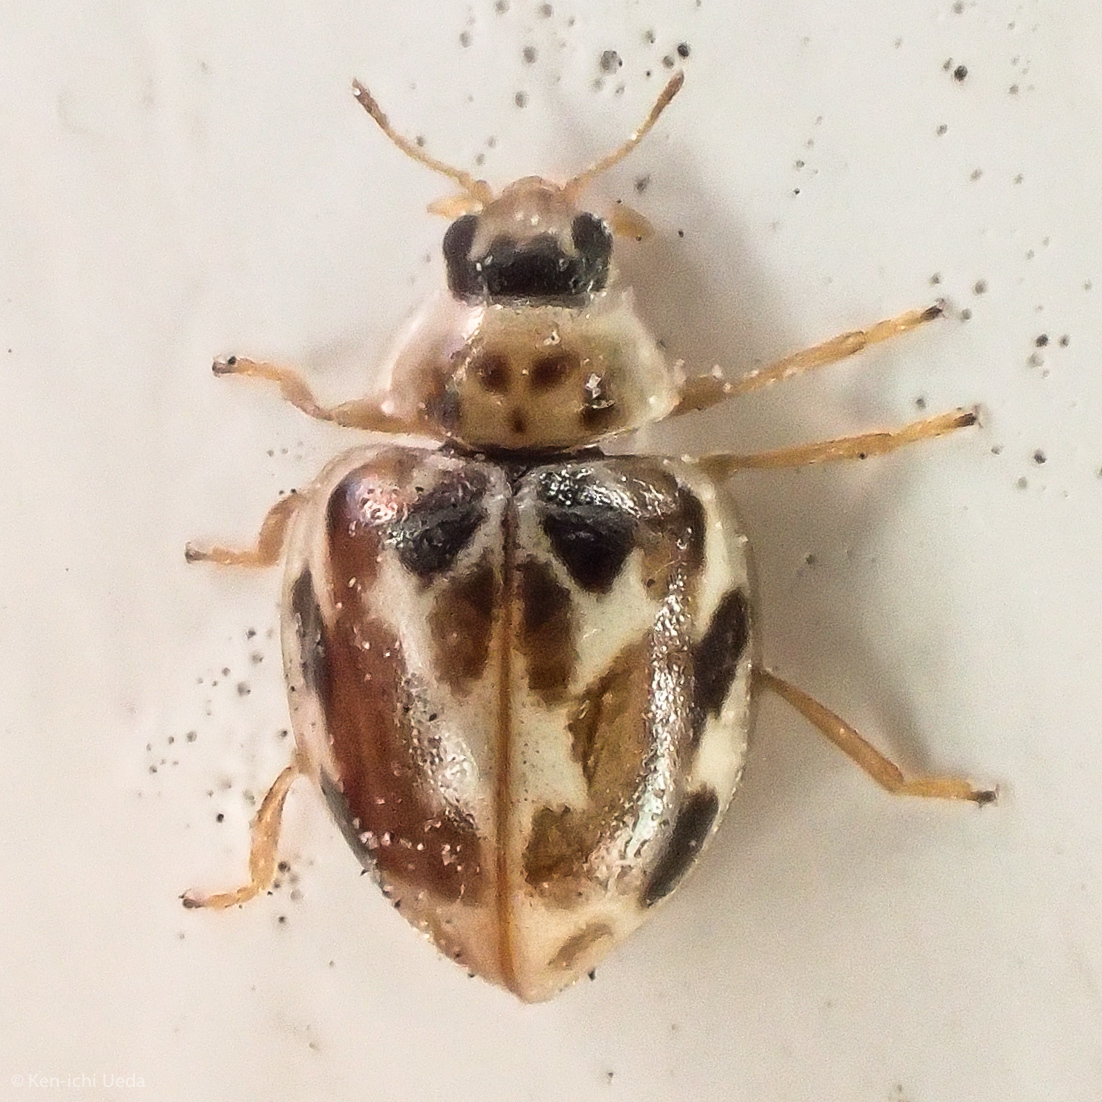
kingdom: Animalia
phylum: Arthropoda
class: Insecta
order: Coleoptera
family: Coccinellidae
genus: Psyllobora
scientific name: Psyllobora vigintimaculata
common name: Ladybird beetle
